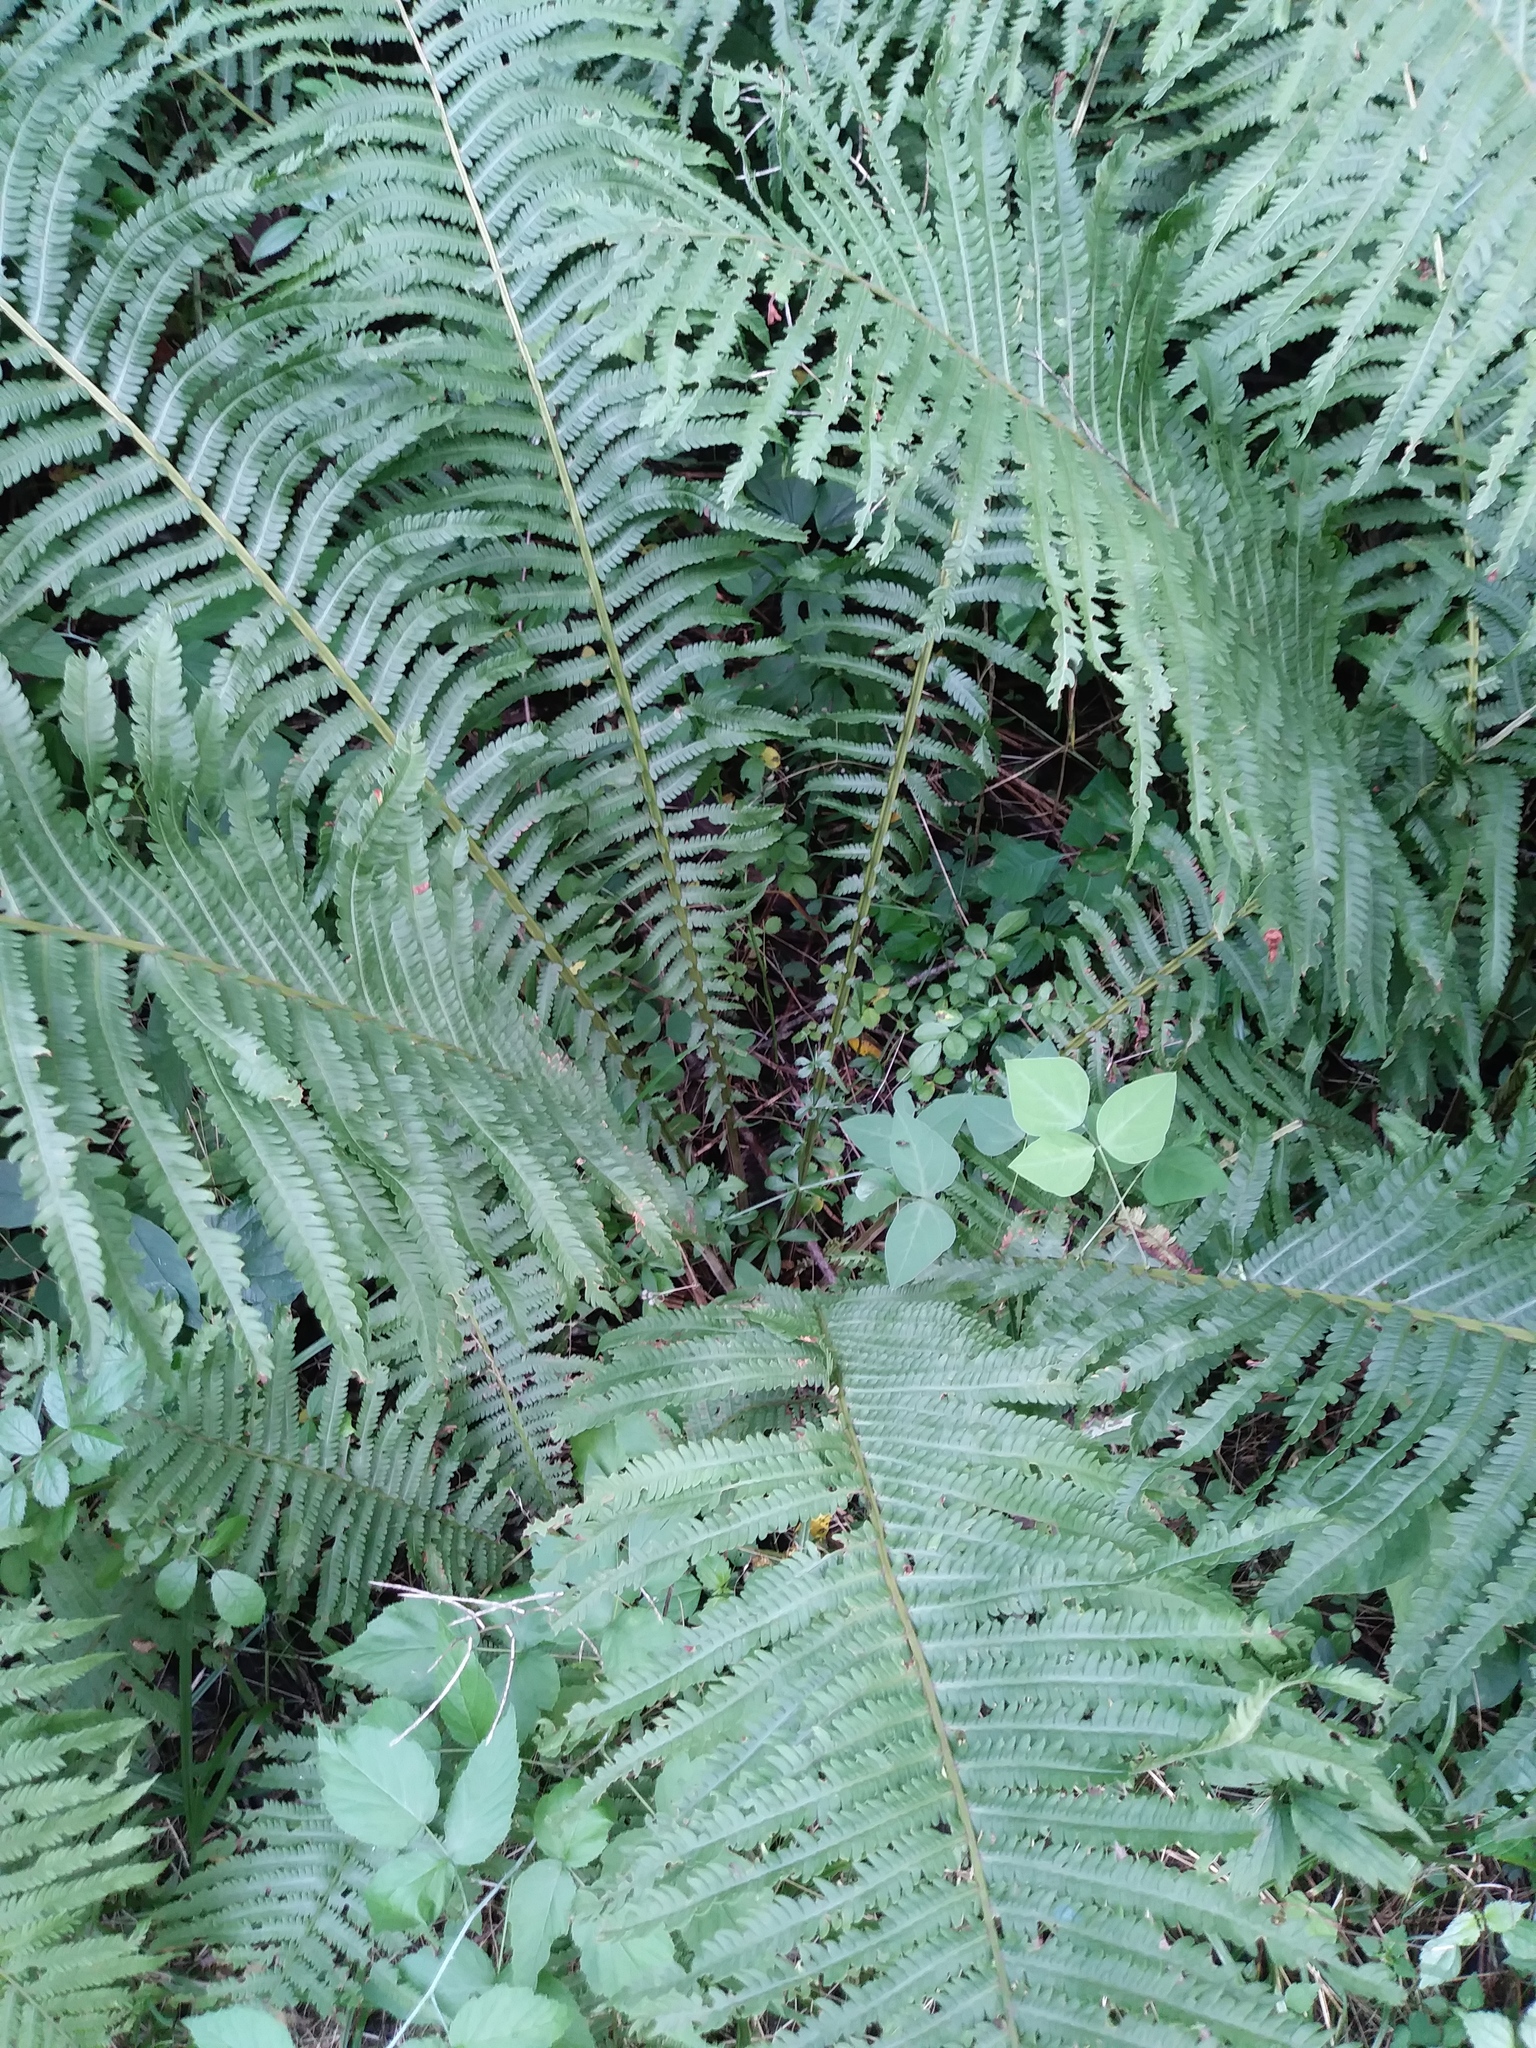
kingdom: Plantae
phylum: Tracheophyta
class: Polypodiopsida
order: Polypodiales
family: Onocleaceae
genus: Matteuccia
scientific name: Matteuccia struthiopteris
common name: Ostrich fern
